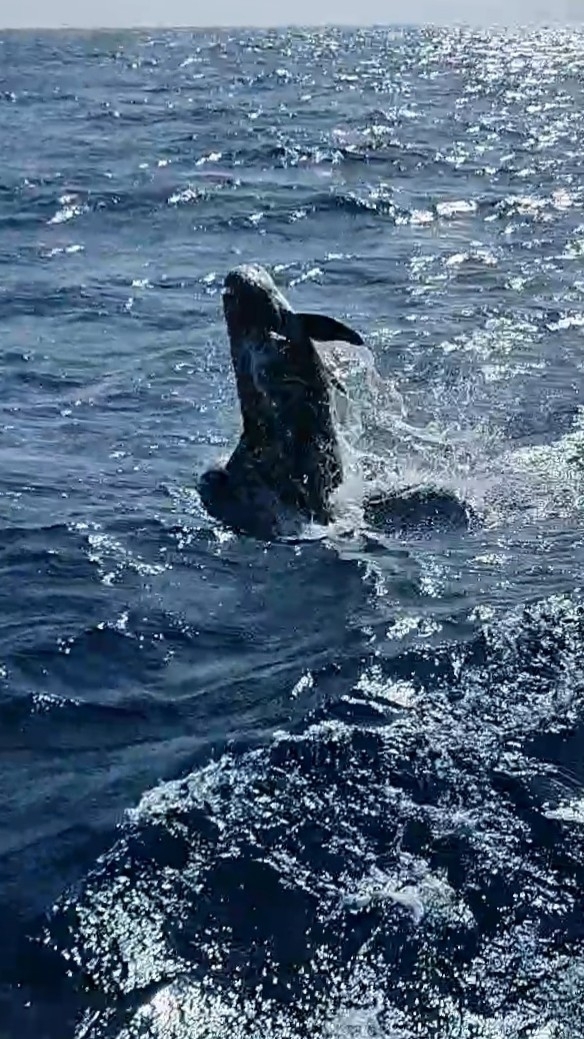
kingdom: Animalia
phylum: Chordata
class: Mammalia
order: Cetacea
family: Delphinidae
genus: Grampus
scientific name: Grampus griseus
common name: Risso's dolphin
